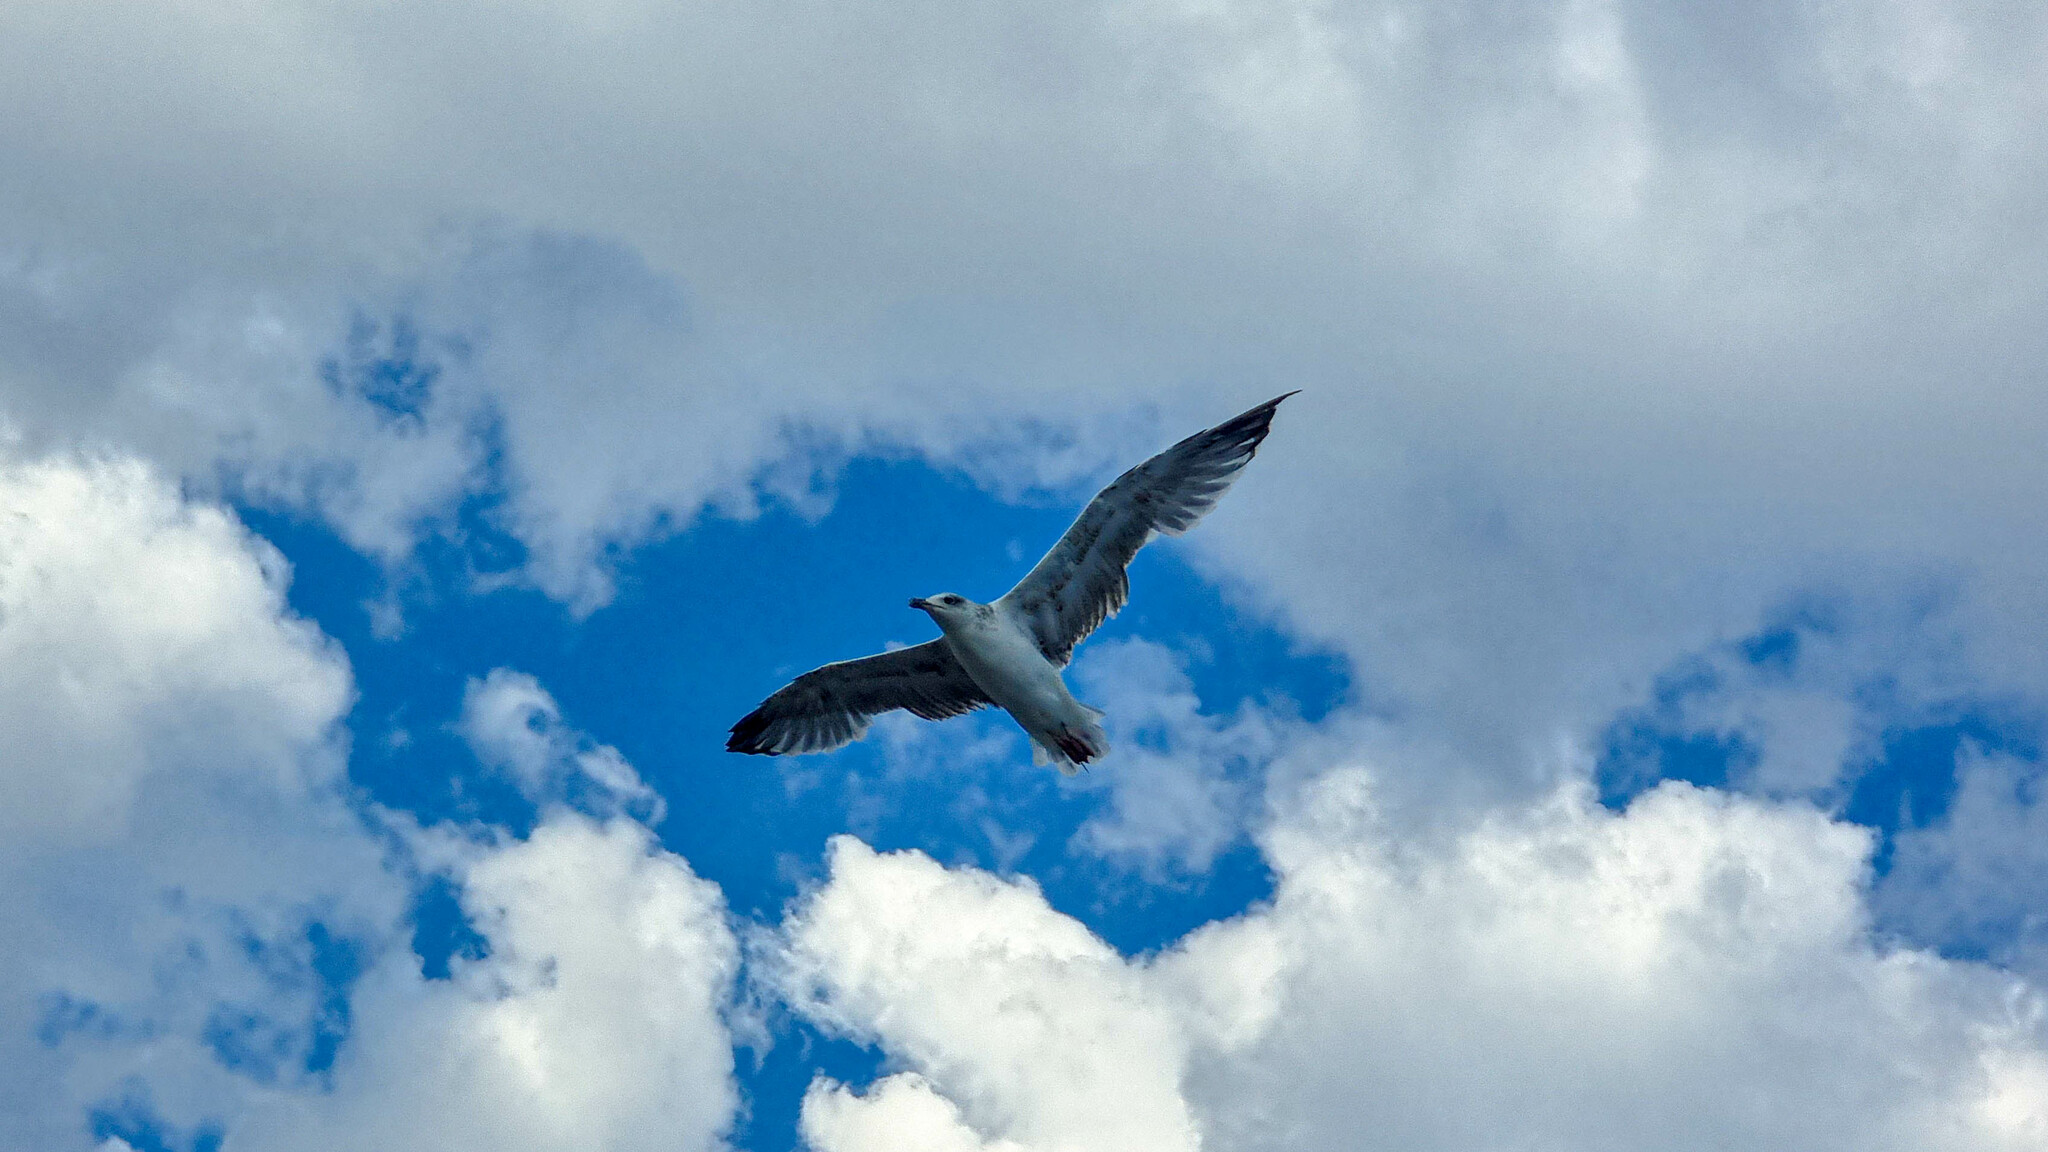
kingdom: Animalia
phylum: Chordata
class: Aves
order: Charadriiformes
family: Laridae
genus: Larus
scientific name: Larus michahellis
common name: Yellow-legged gull
